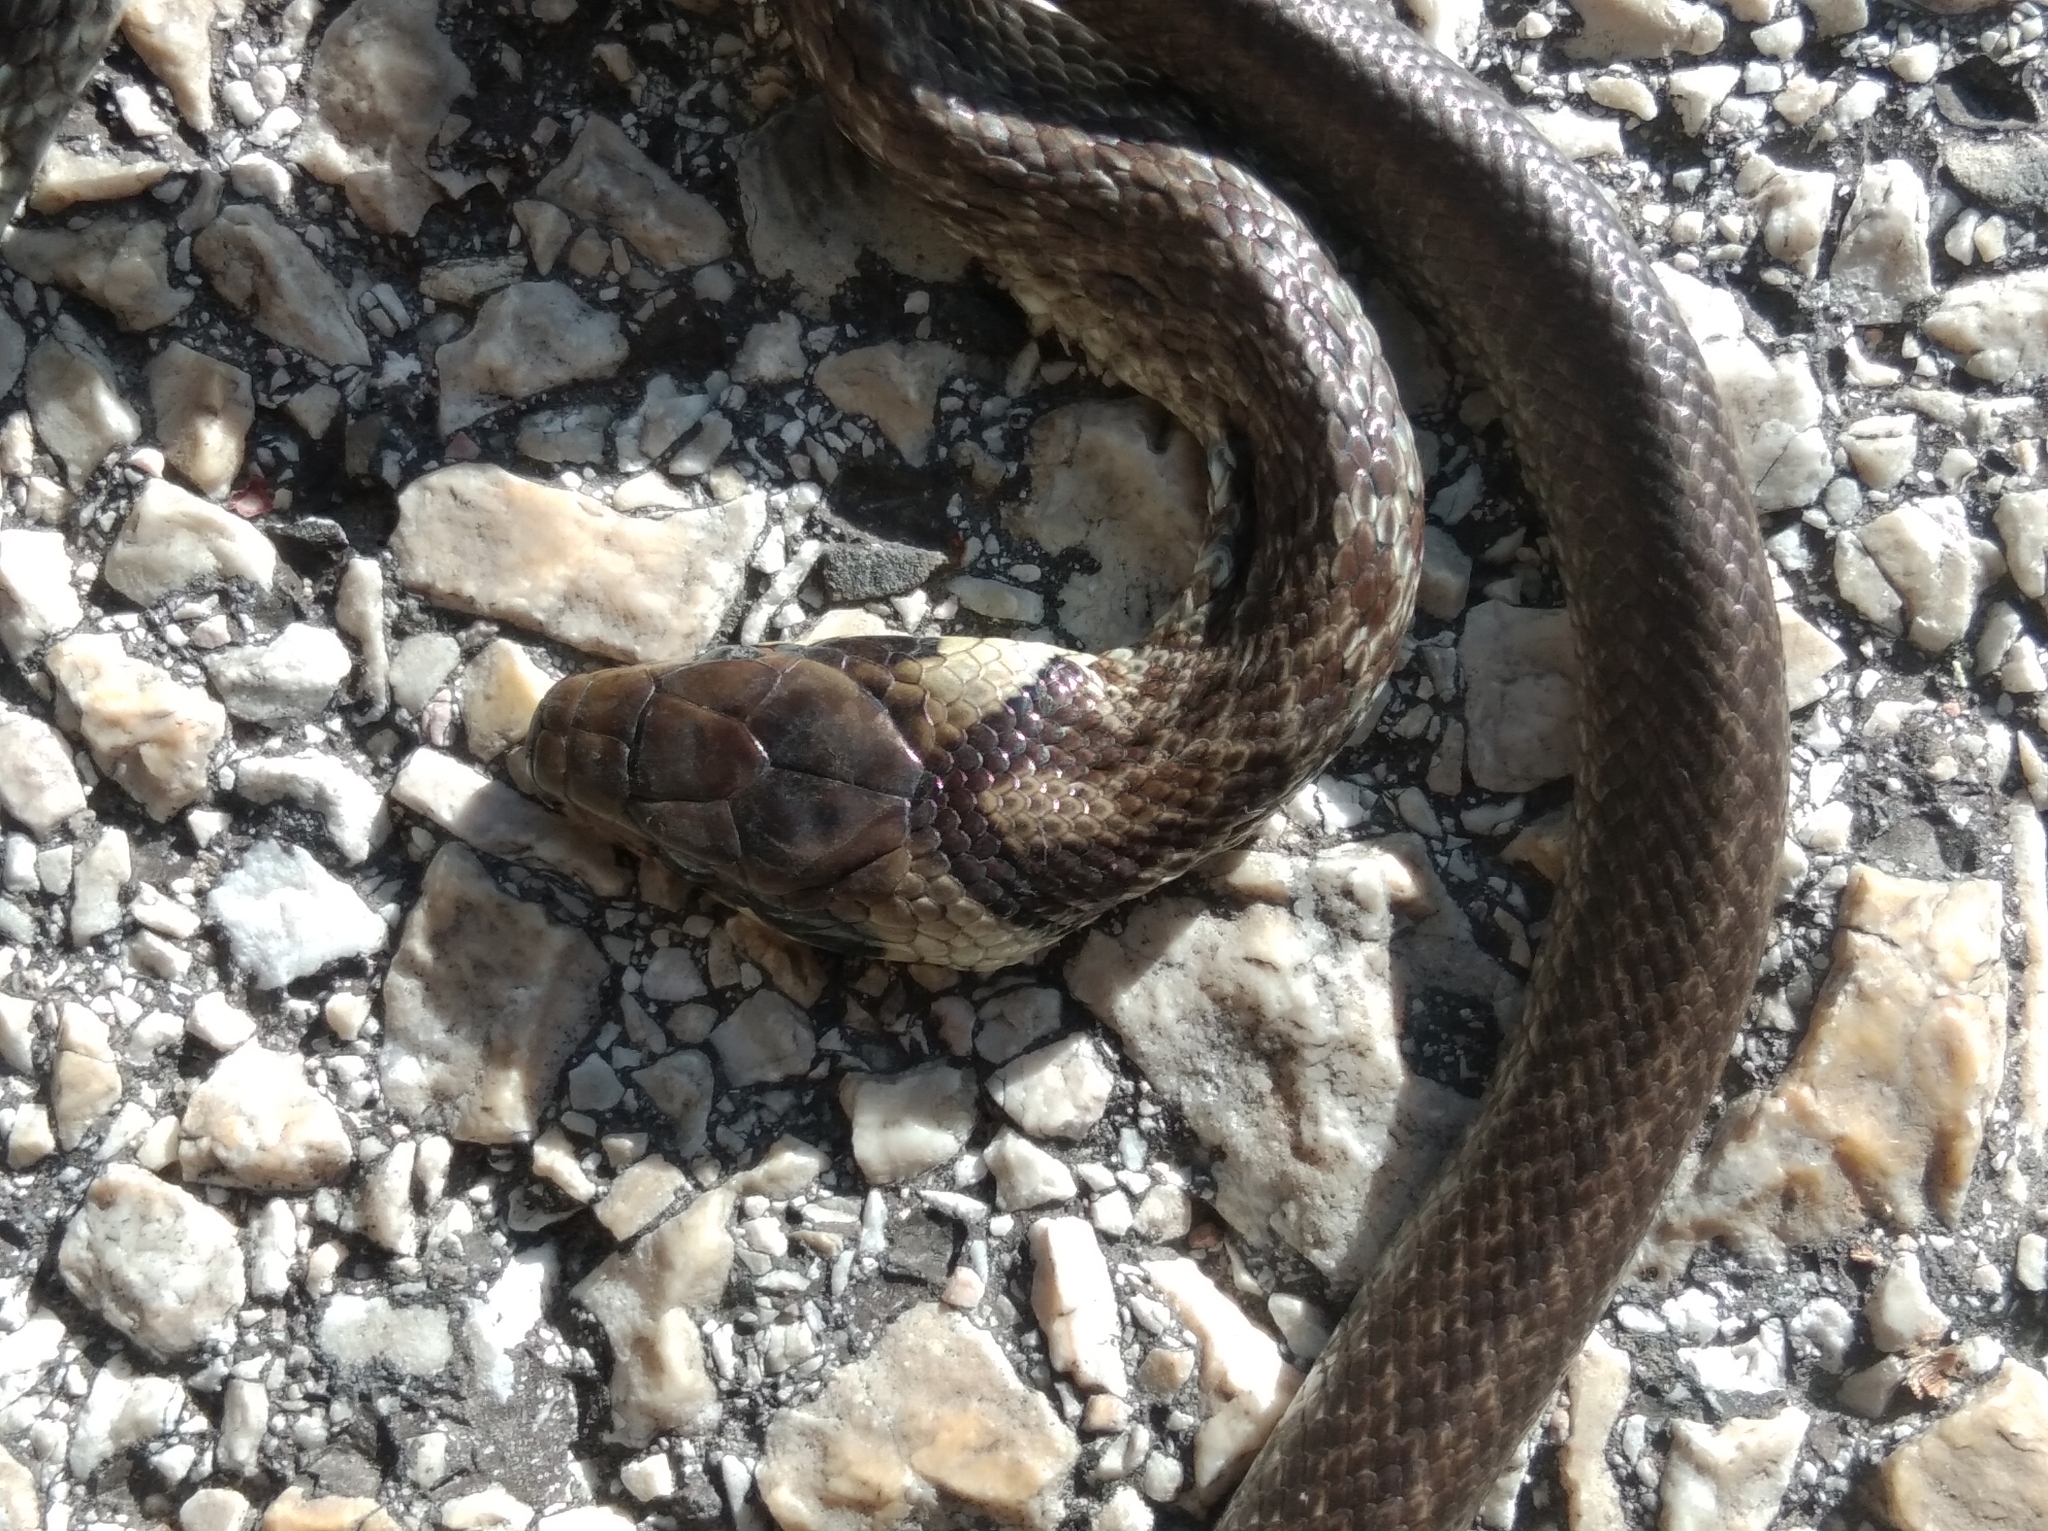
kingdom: Animalia
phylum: Chordata
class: Squamata
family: Colubridae
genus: Zamenis
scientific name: Zamenis longissimus
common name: Aesculapean snake
